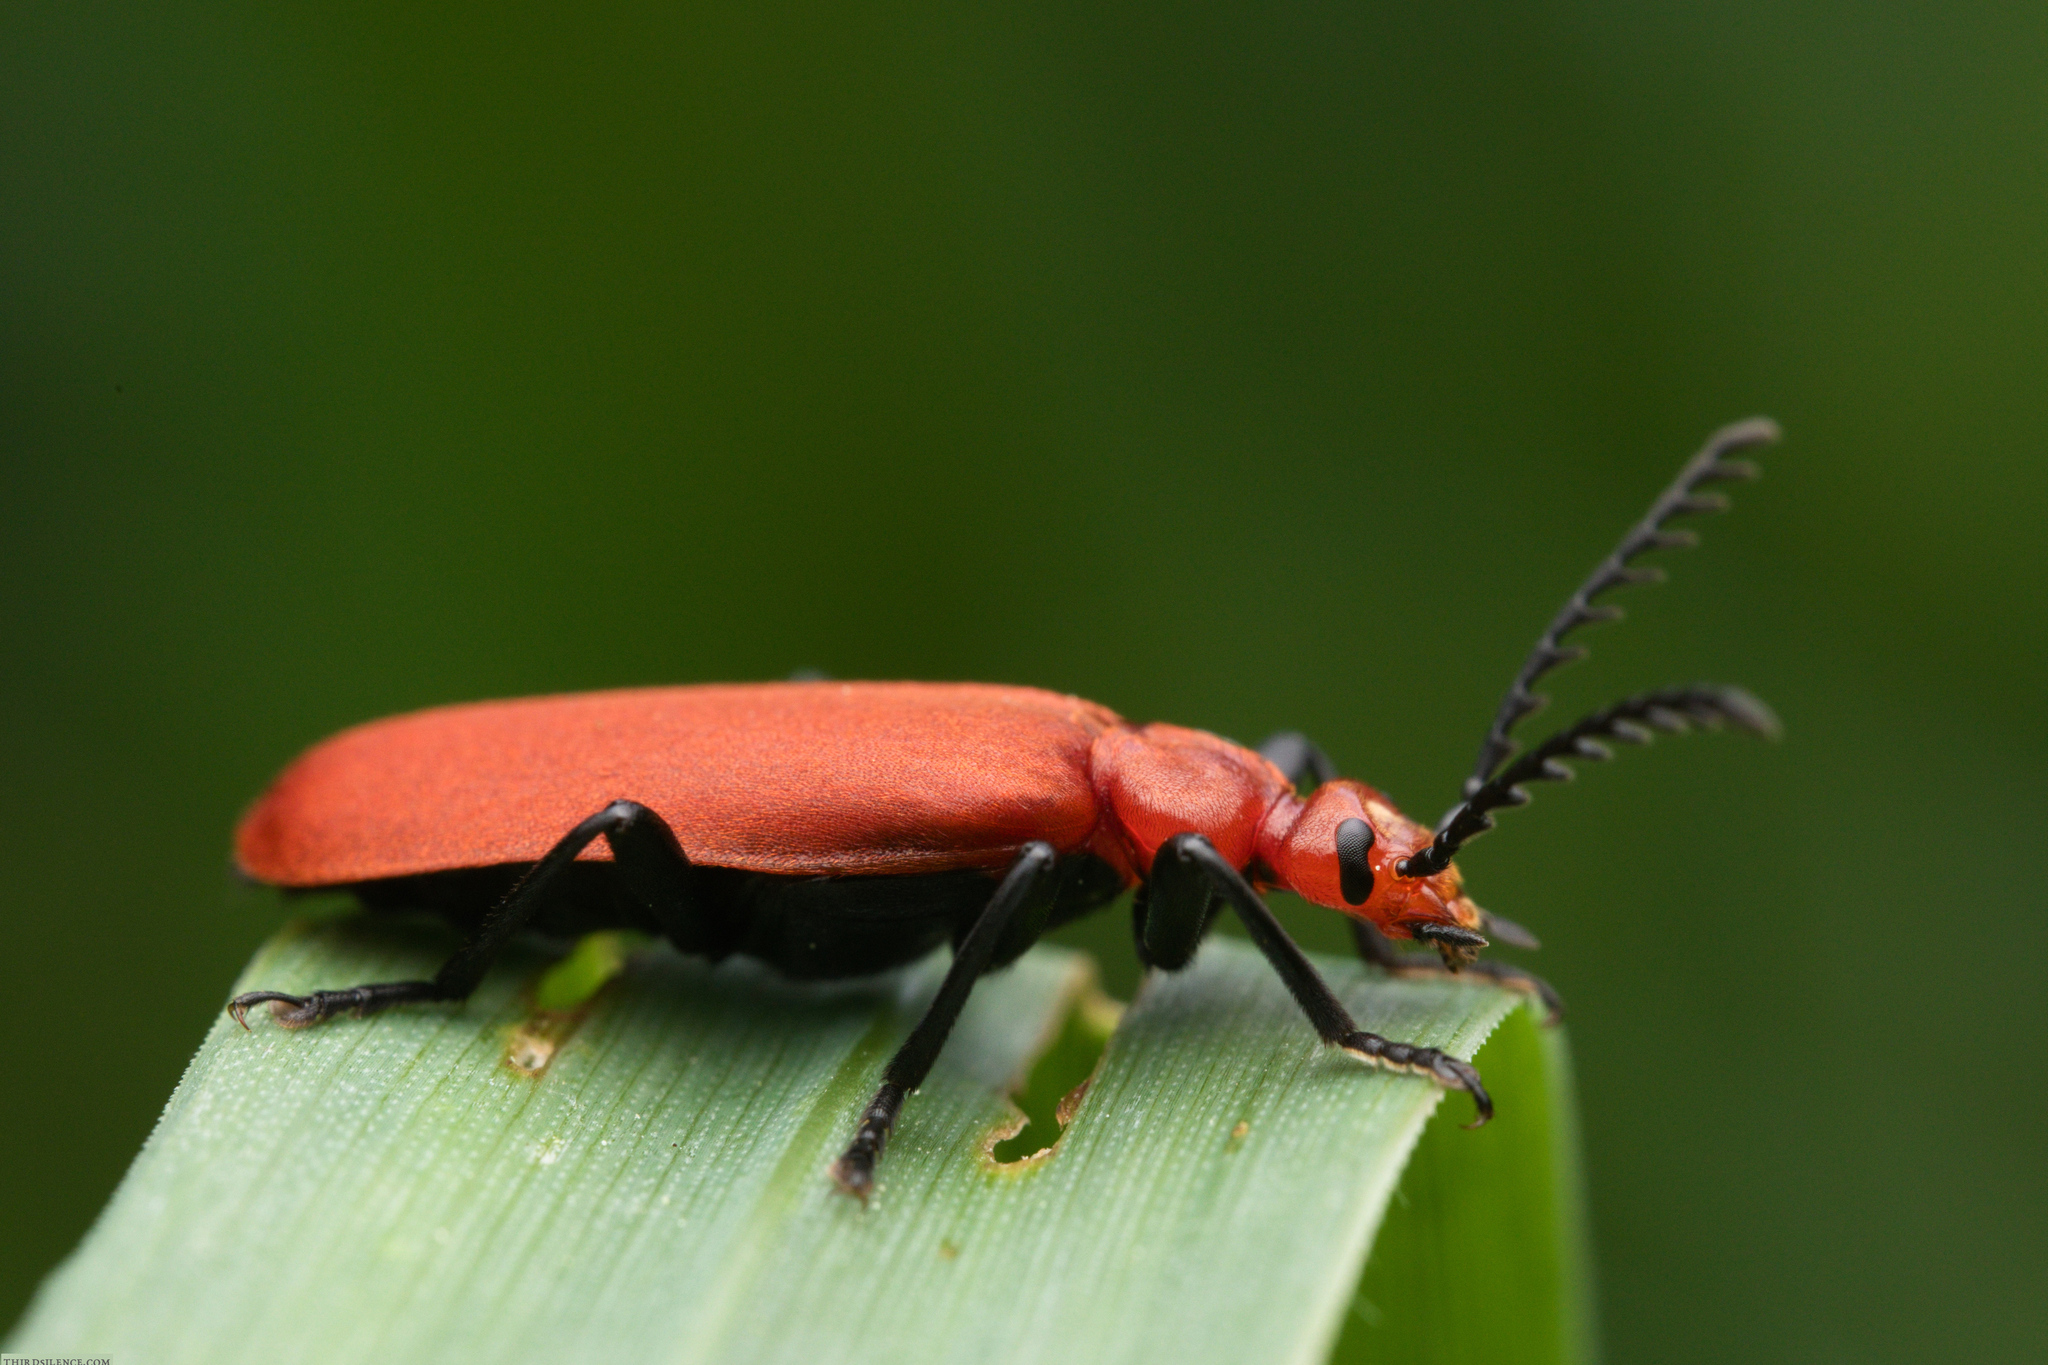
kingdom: Animalia
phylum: Arthropoda
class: Insecta
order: Coleoptera
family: Pyrochroidae
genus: Pyrochroa
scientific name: Pyrochroa serraticornis
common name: Red-headed cardinal beetle
